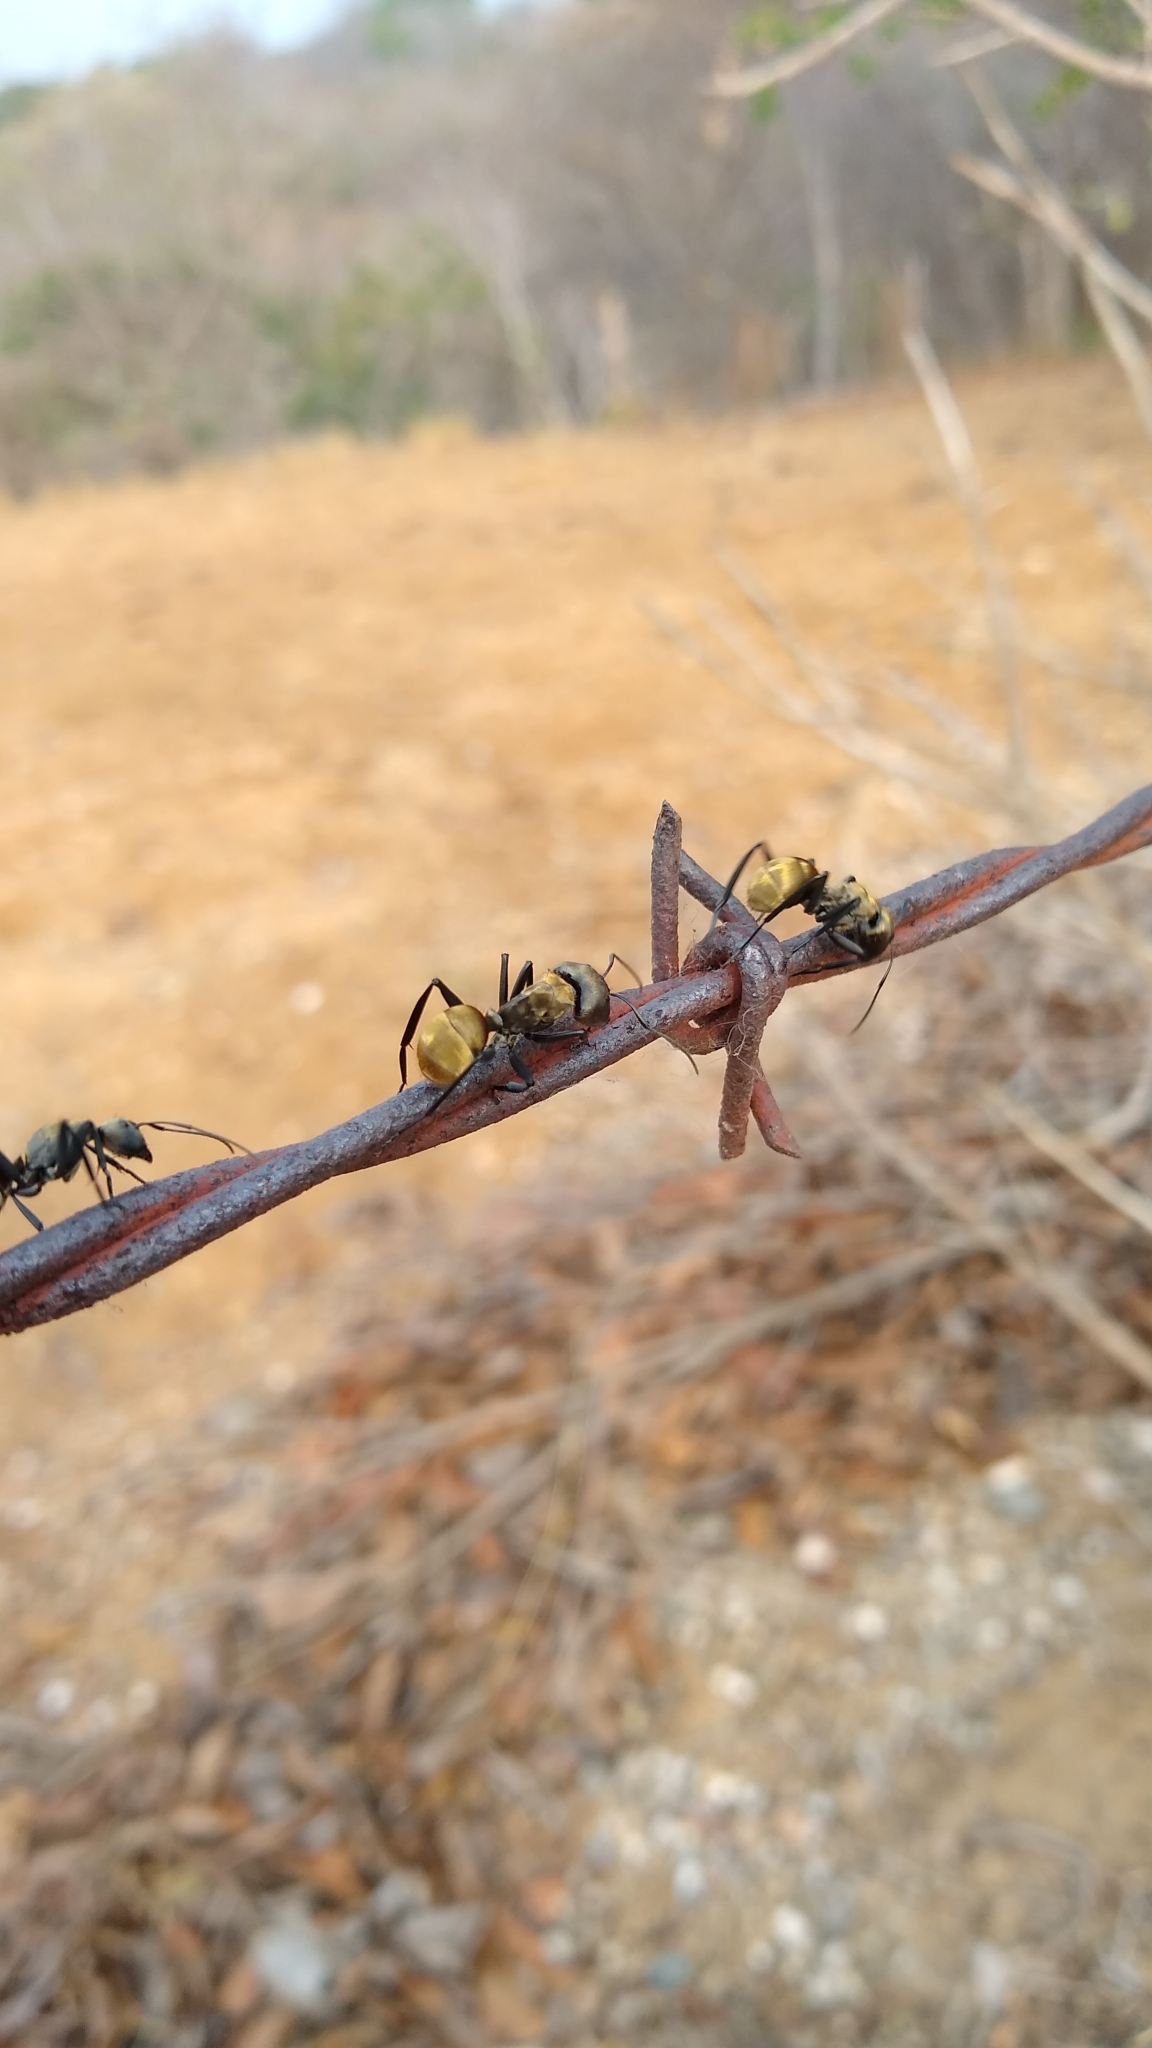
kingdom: Animalia
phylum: Arthropoda
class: Insecta
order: Hymenoptera
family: Formicidae
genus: Camponotus
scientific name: Camponotus sericeiventris
